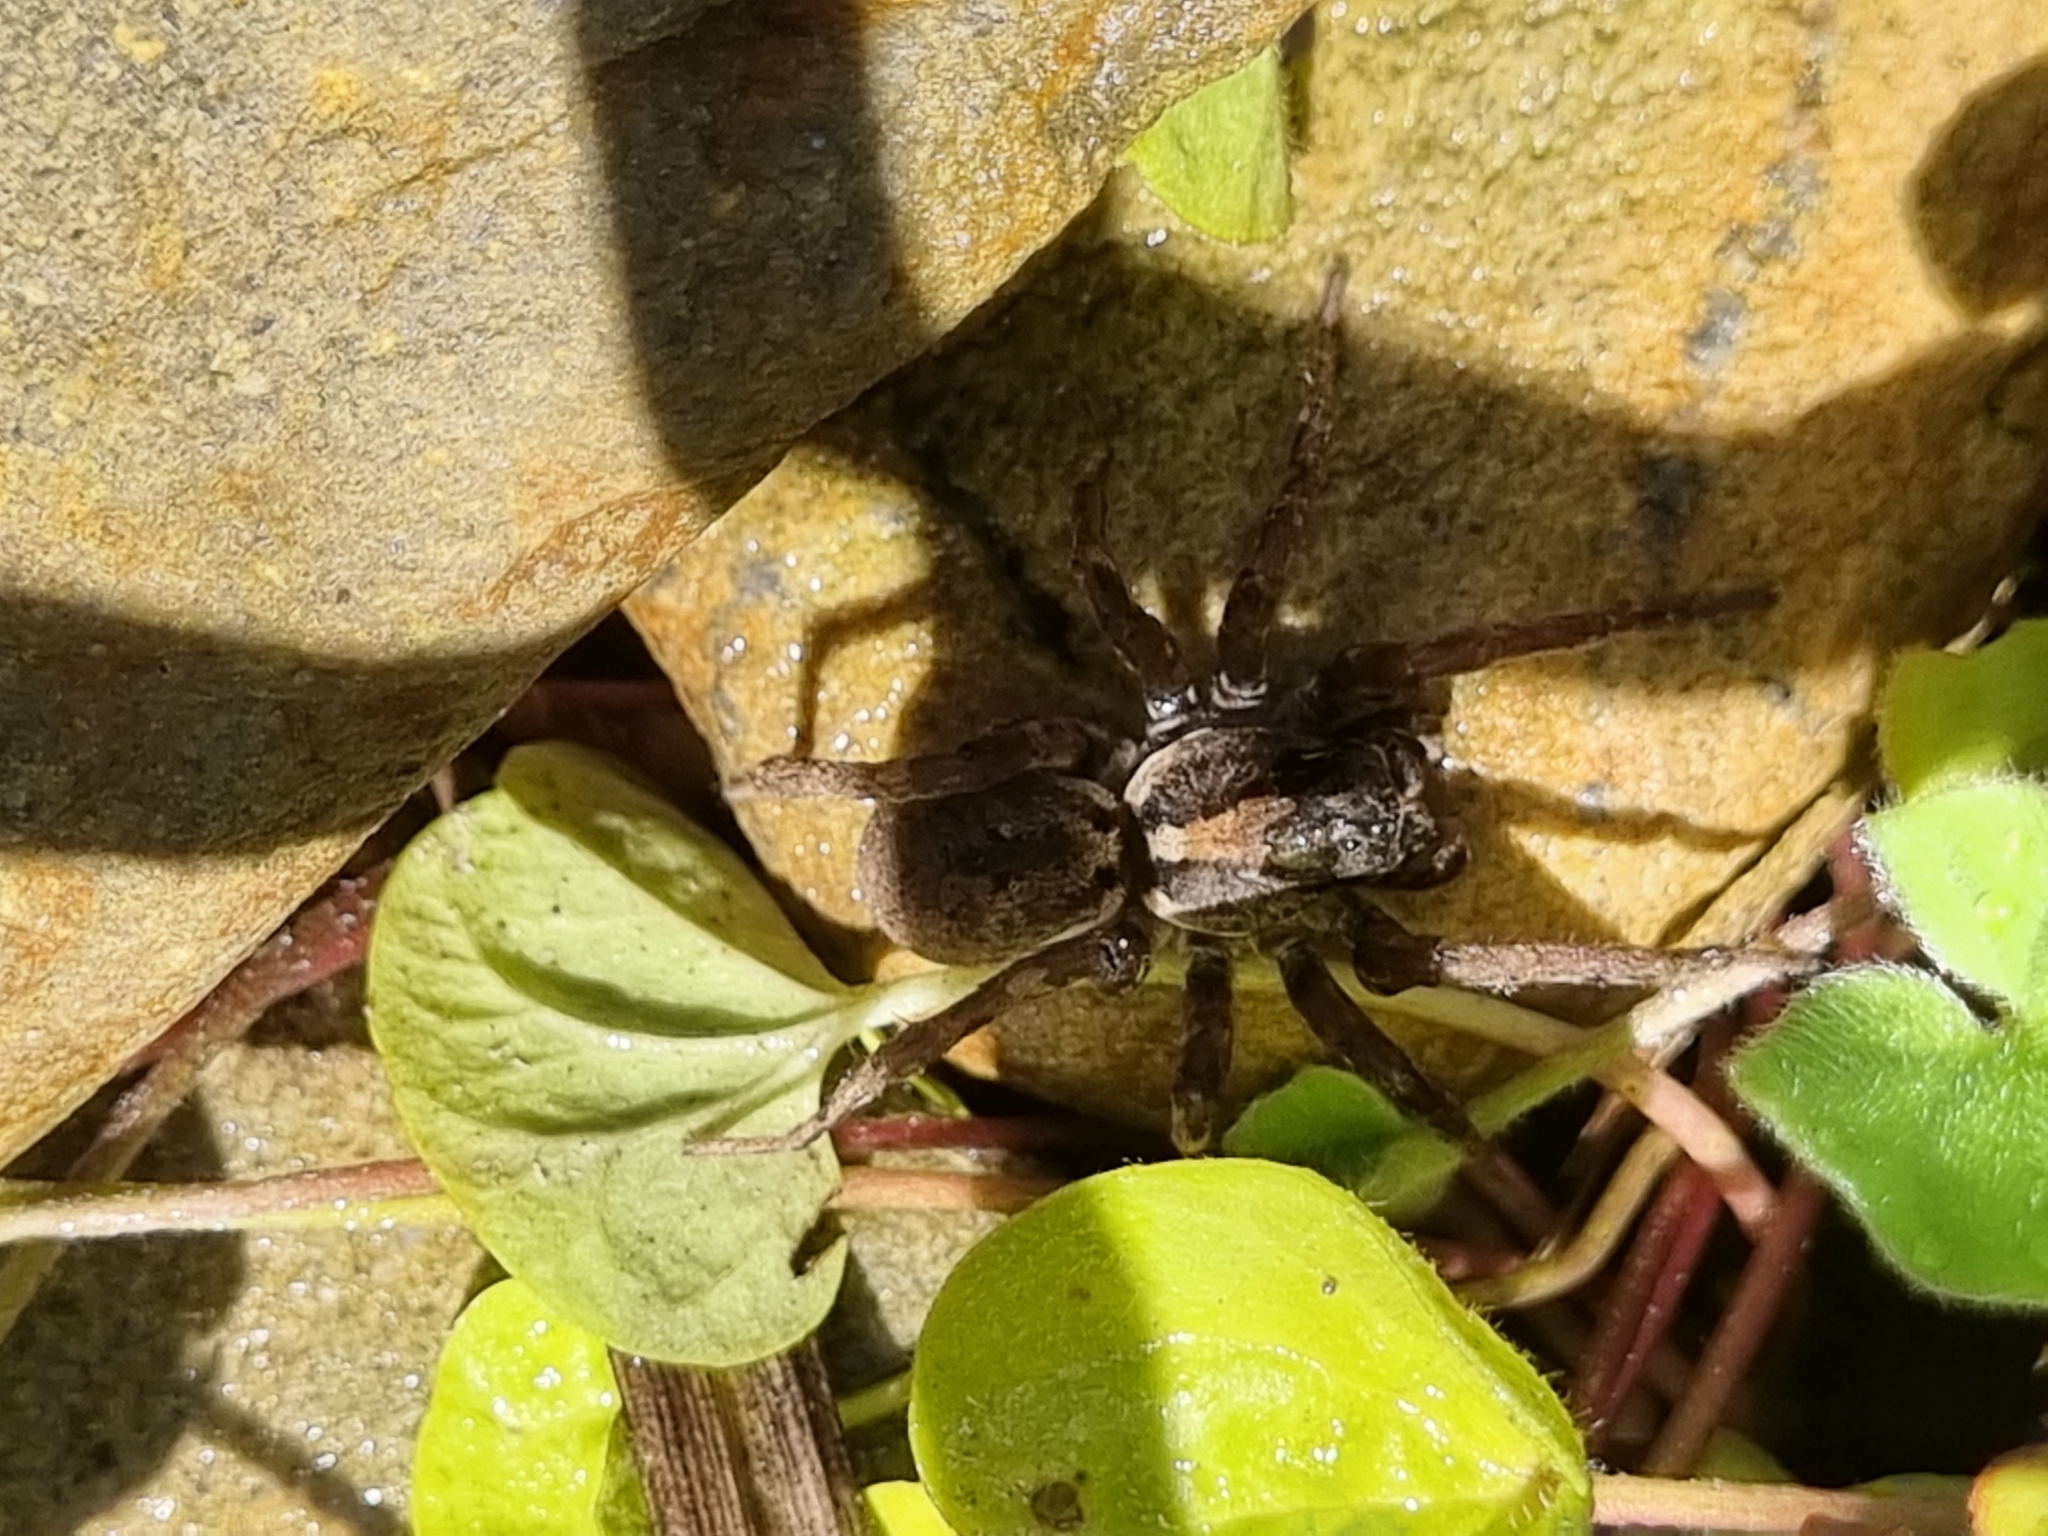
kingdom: Animalia
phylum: Arthropoda
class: Arachnida
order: Araneae
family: Lycosidae
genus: Venatrix
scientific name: Venatrix
